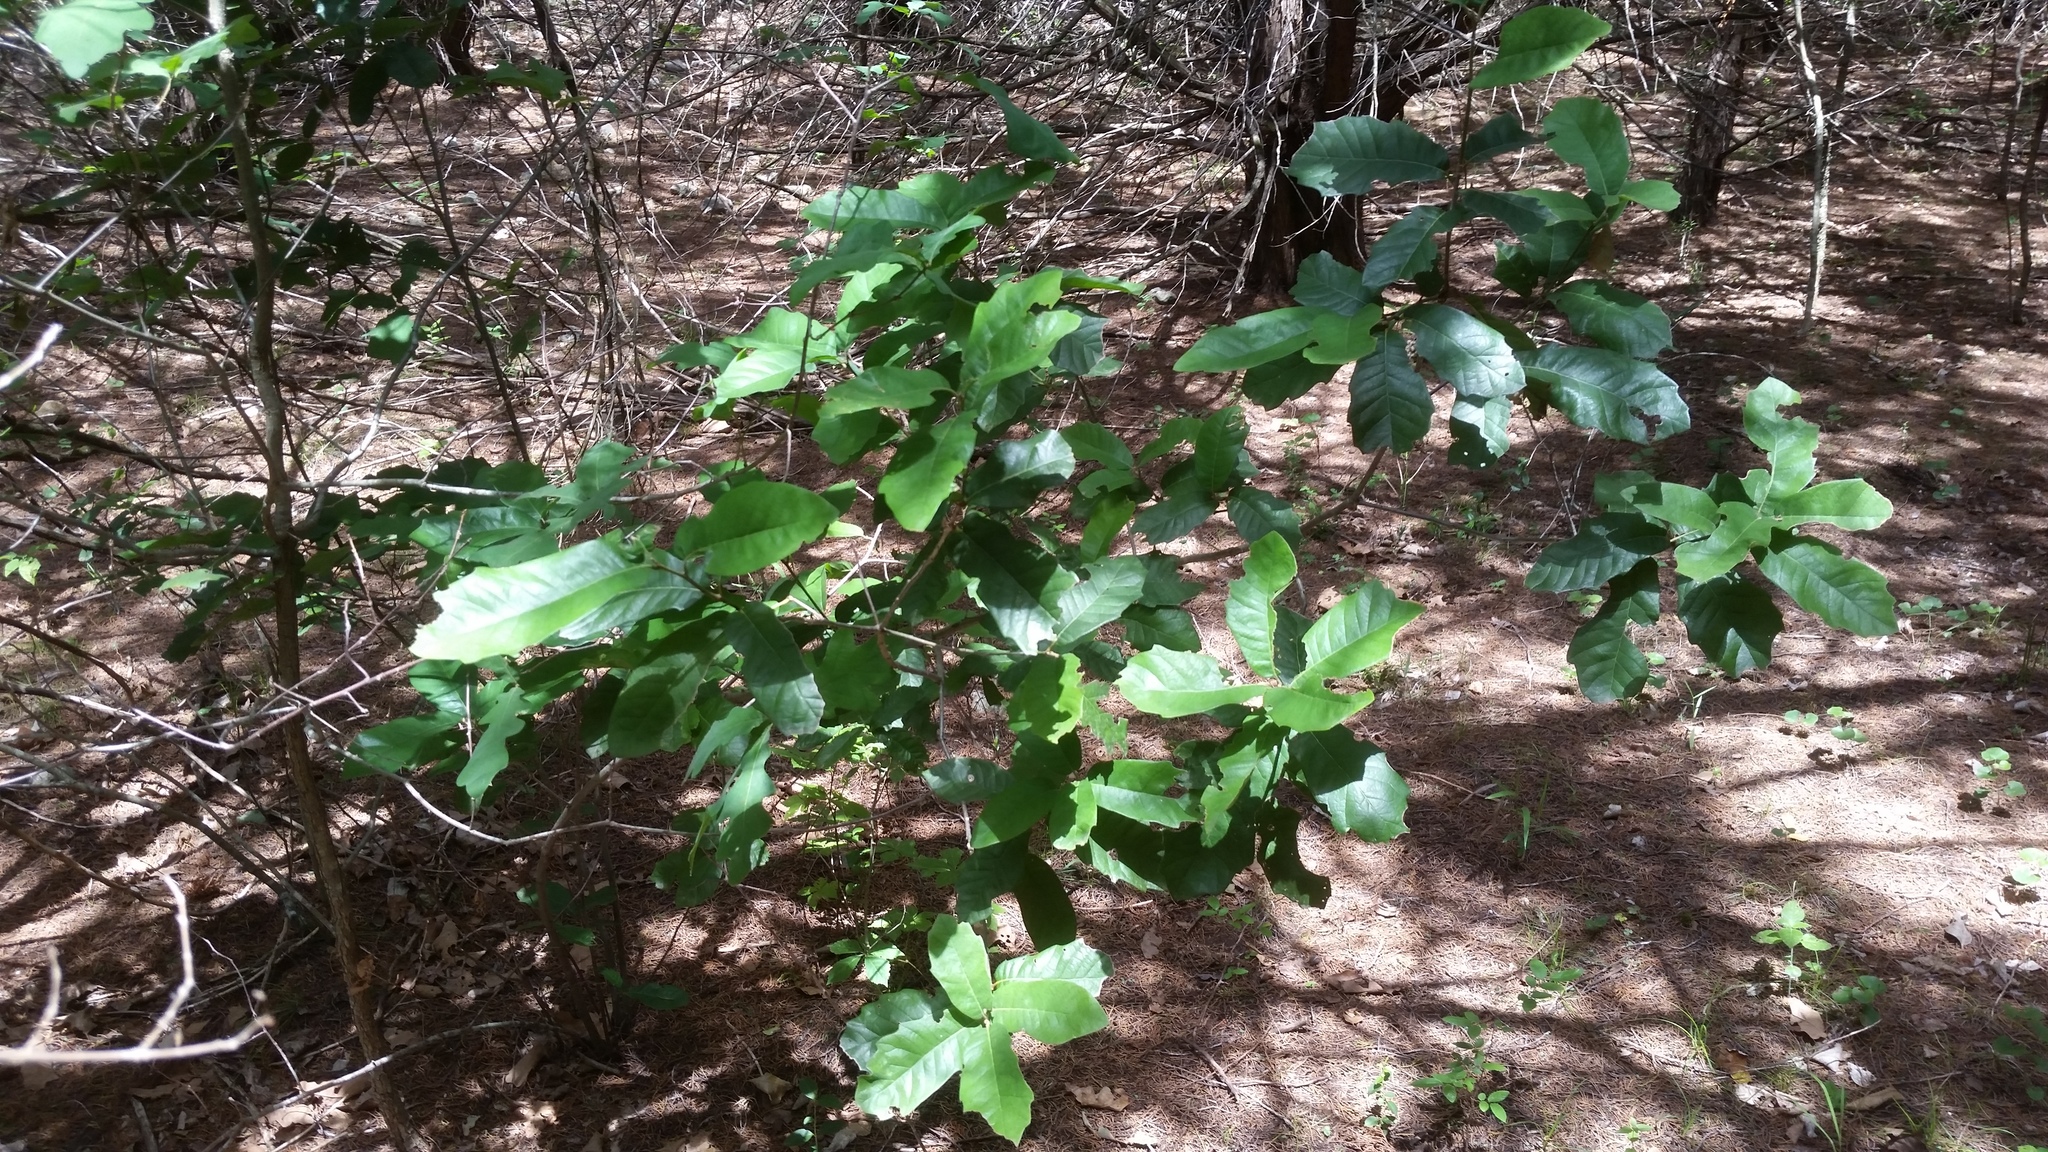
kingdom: Plantae
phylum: Tracheophyta
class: Magnoliopsida
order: Fagales
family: Fagaceae
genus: Quercus
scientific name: Quercus polymorpha
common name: Mexican white oak
